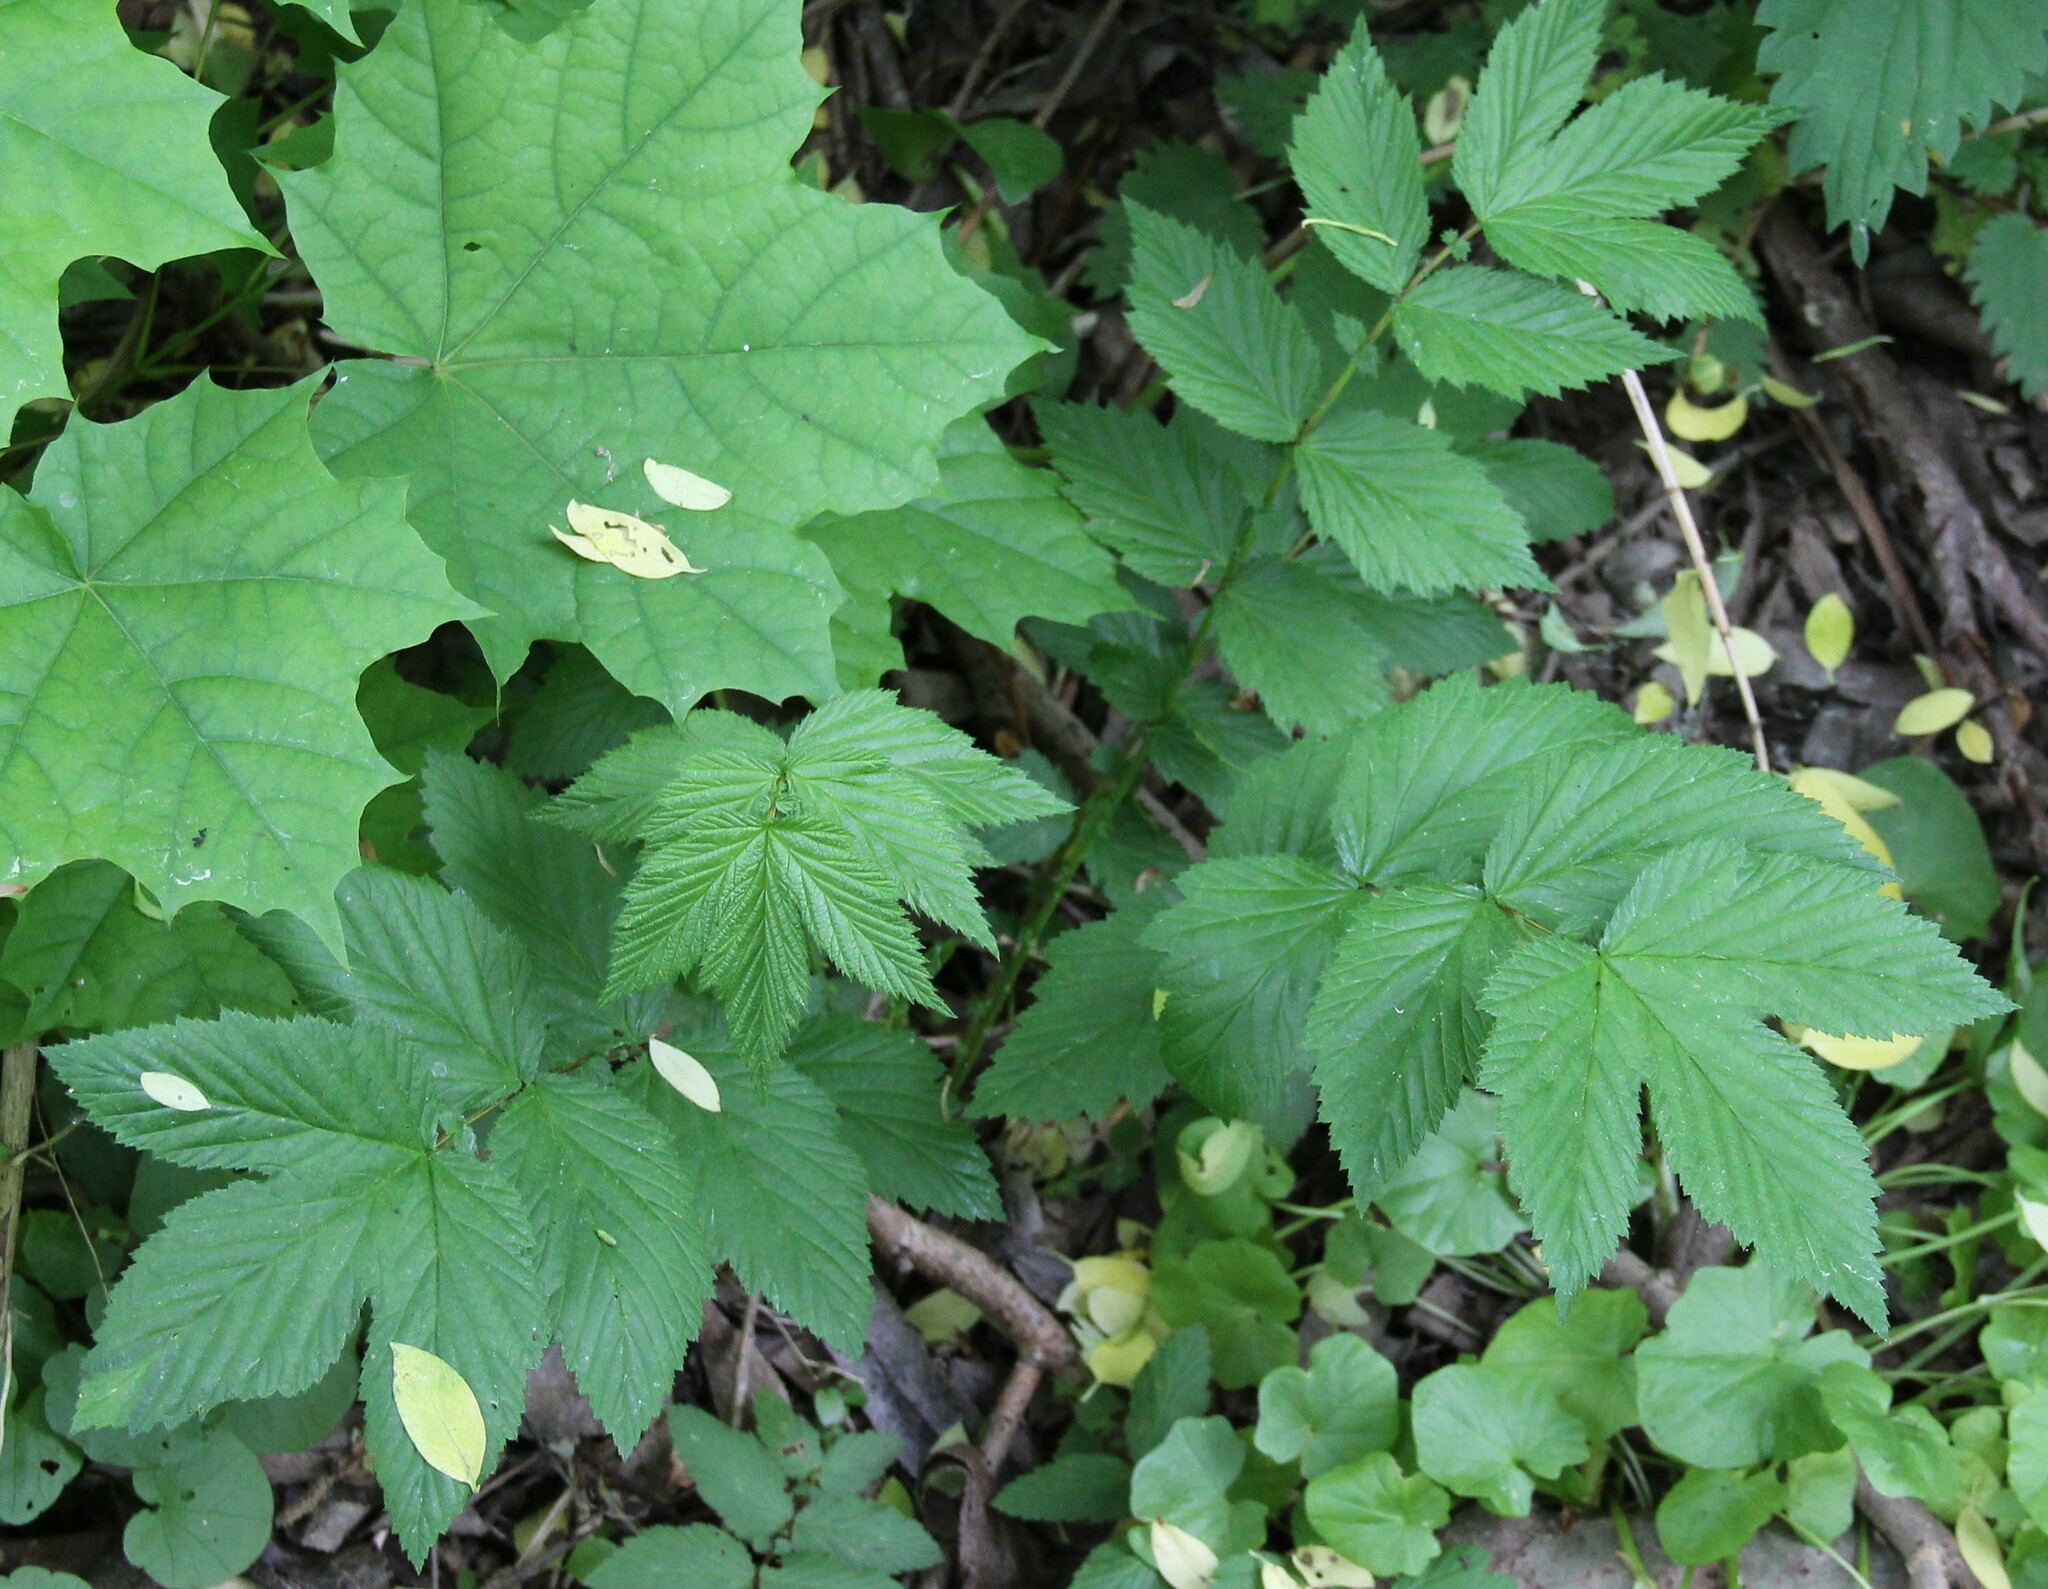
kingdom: Plantae
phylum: Tracheophyta
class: Magnoliopsida
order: Rosales
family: Rosaceae
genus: Filipendula
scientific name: Filipendula ulmaria
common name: Meadowsweet
